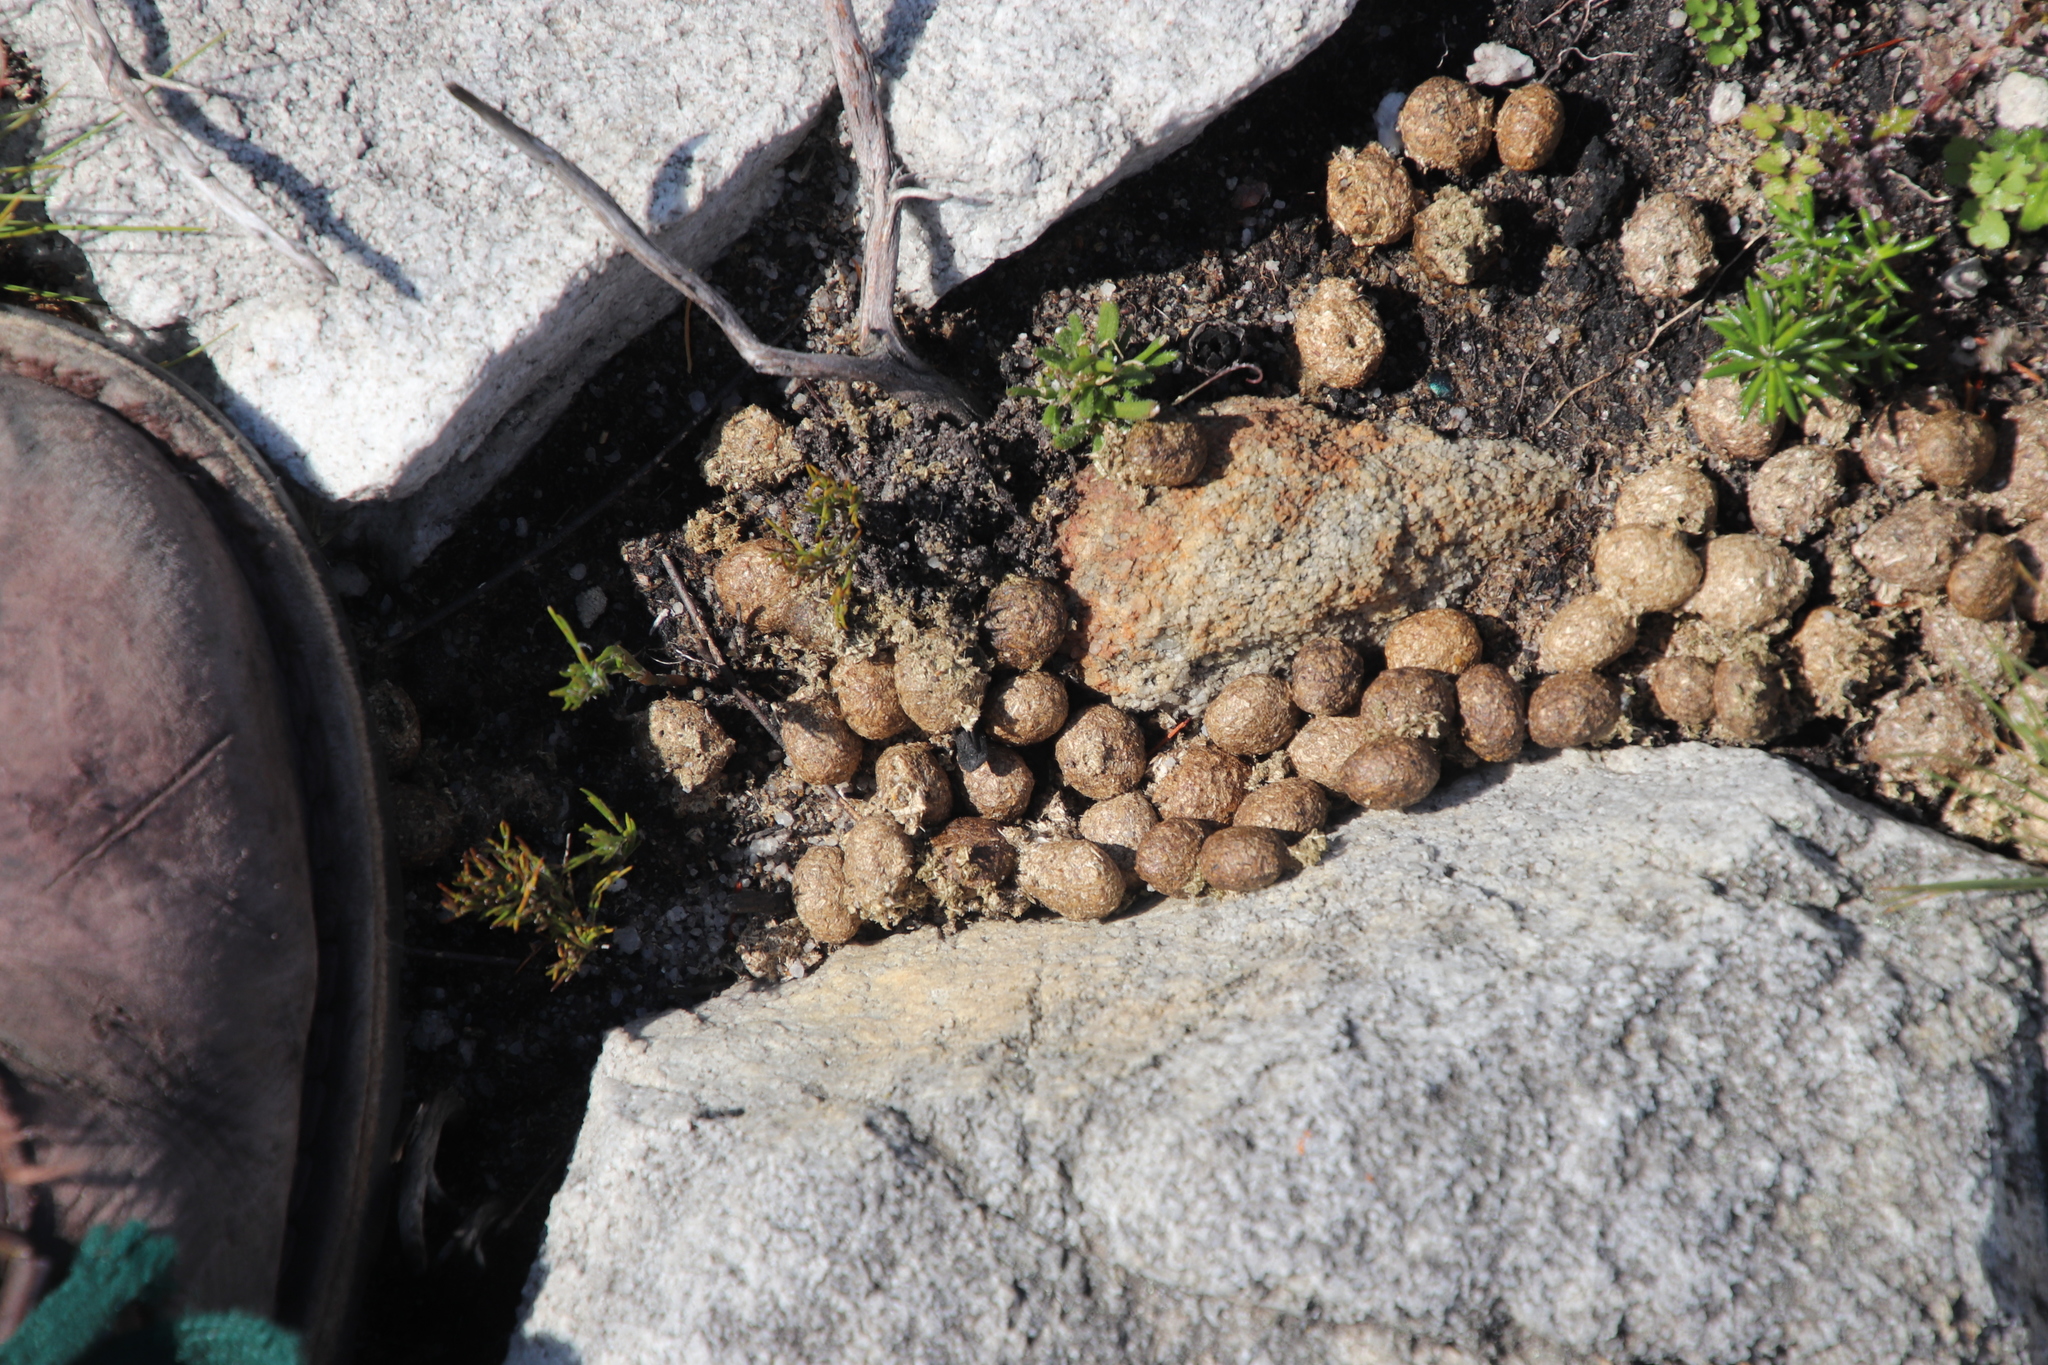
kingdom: Animalia
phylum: Chordata
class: Mammalia
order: Lagomorpha
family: Leporidae
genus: Pronolagus
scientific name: Pronolagus saundersiae
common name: Hewitt's red rock hare
